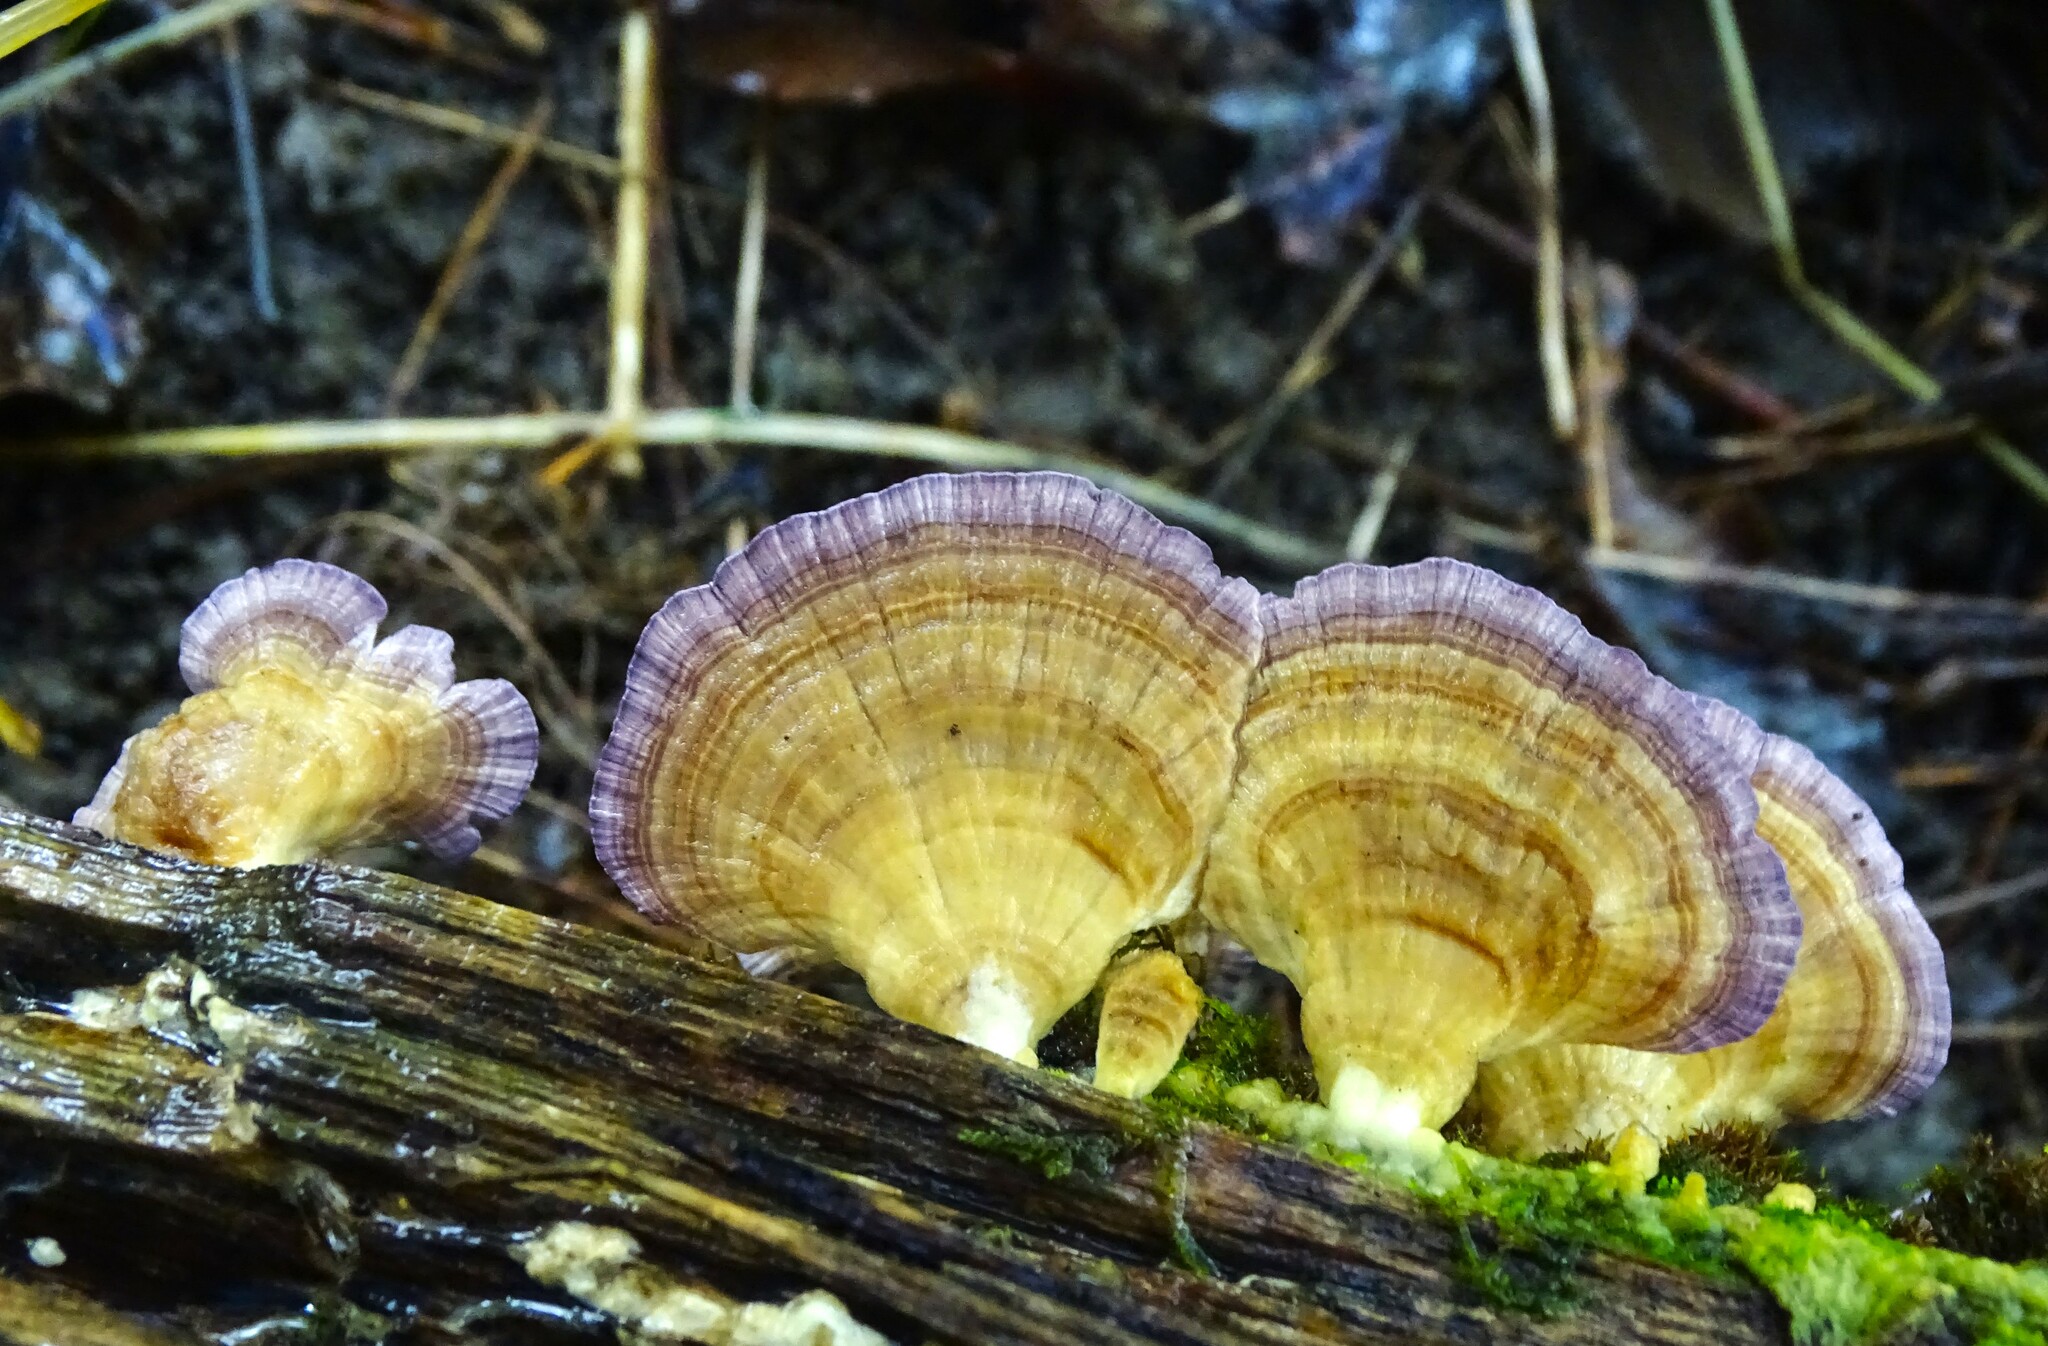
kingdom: Fungi
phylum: Basidiomycota
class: Agaricomycetes
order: Hymenochaetales
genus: Trichaptum
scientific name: Trichaptum biforme
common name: Violet-toothed polypore
